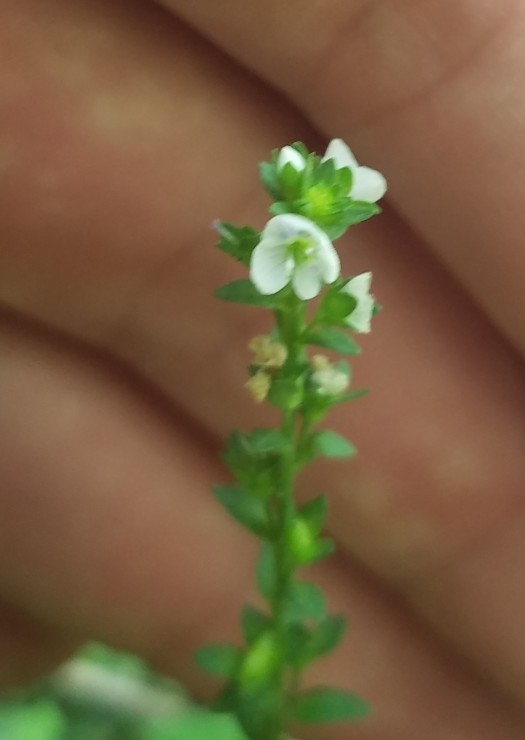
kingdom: Plantae
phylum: Tracheophyta
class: Magnoliopsida
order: Lamiales
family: Plantaginaceae
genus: Veronica
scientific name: Veronica serpyllifolia
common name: Thyme-leaved speedwell
